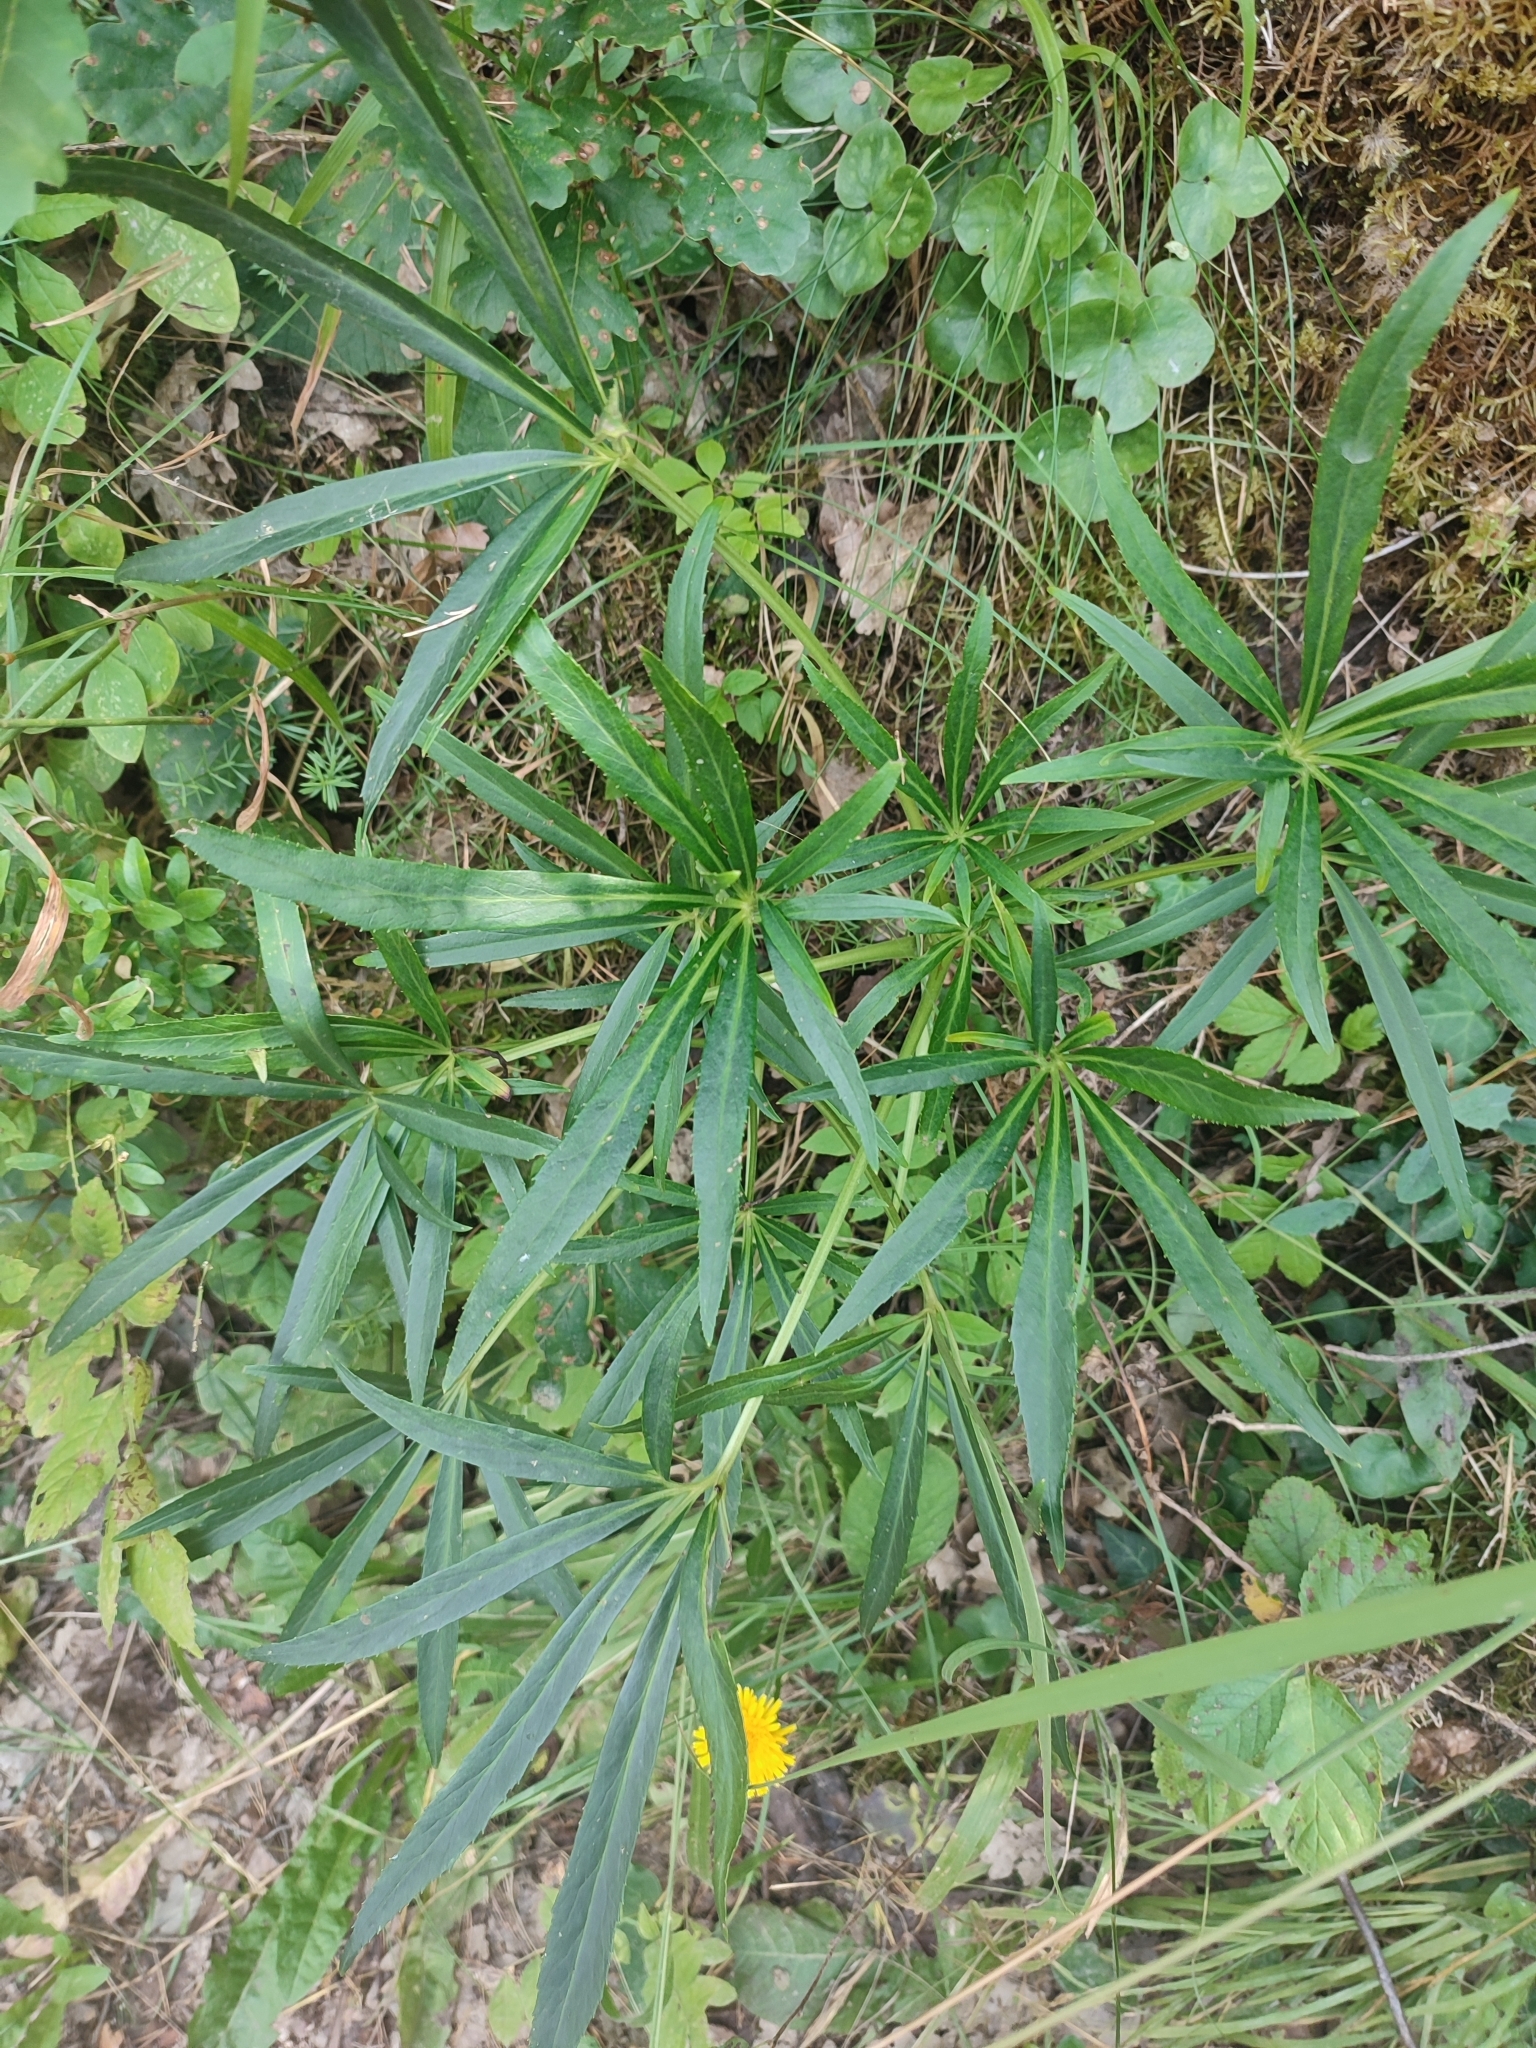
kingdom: Plantae
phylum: Tracheophyta
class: Magnoliopsida
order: Ranunculales
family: Ranunculaceae
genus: Helleborus
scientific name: Helleborus foetidus
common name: Stinking hellebore
